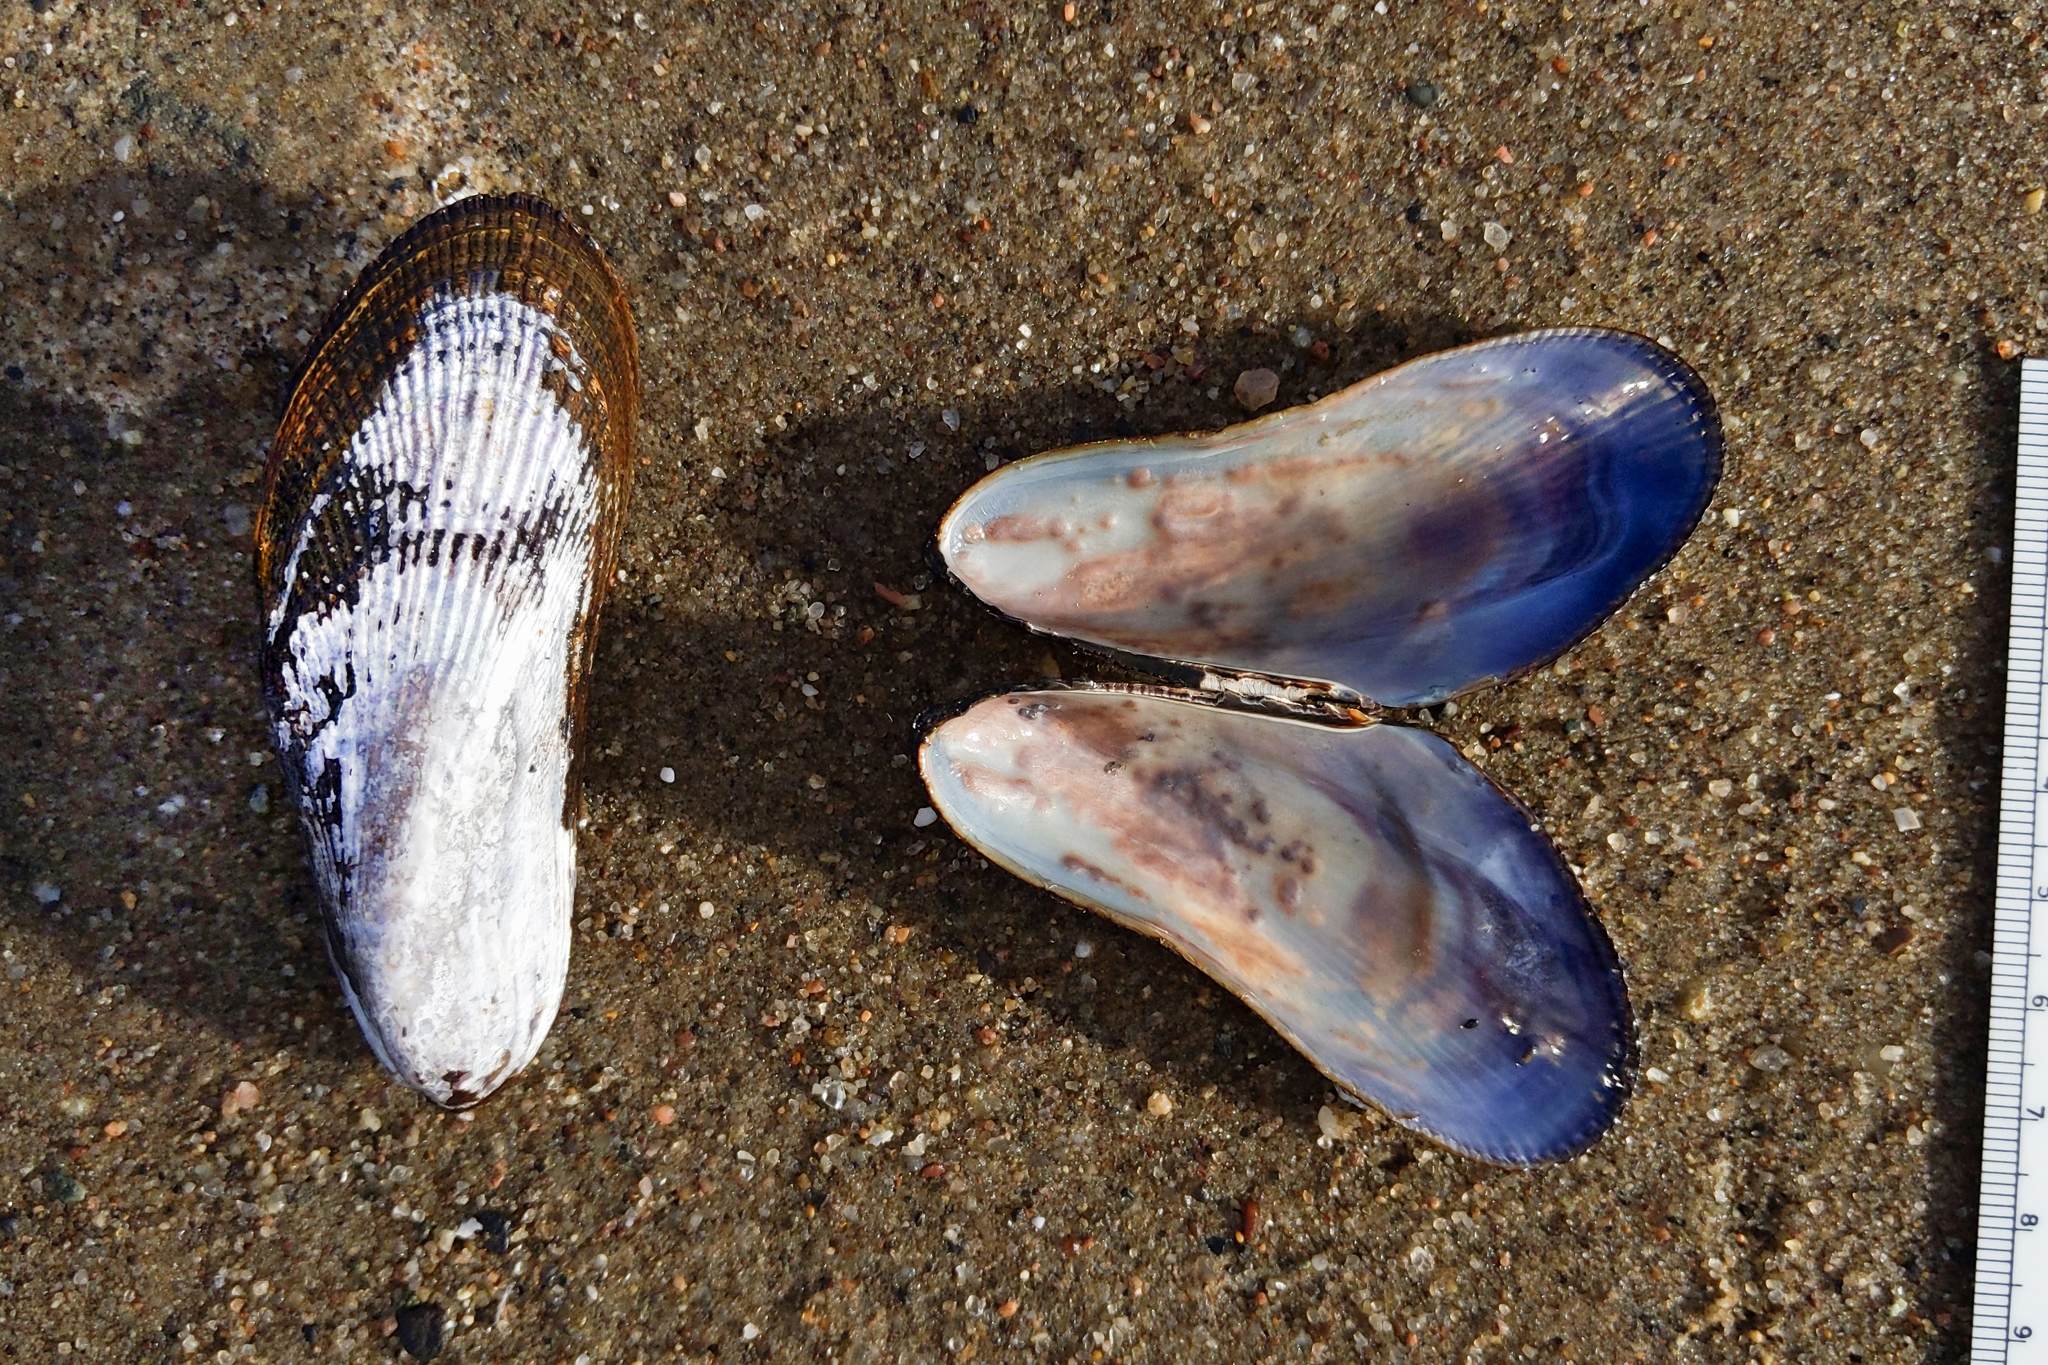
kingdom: Animalia
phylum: Mollusca
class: Bivalvia
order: Mytilida
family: Mytilidae
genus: Geukensia
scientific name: Geukensia demissa
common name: Ribbed mussel
